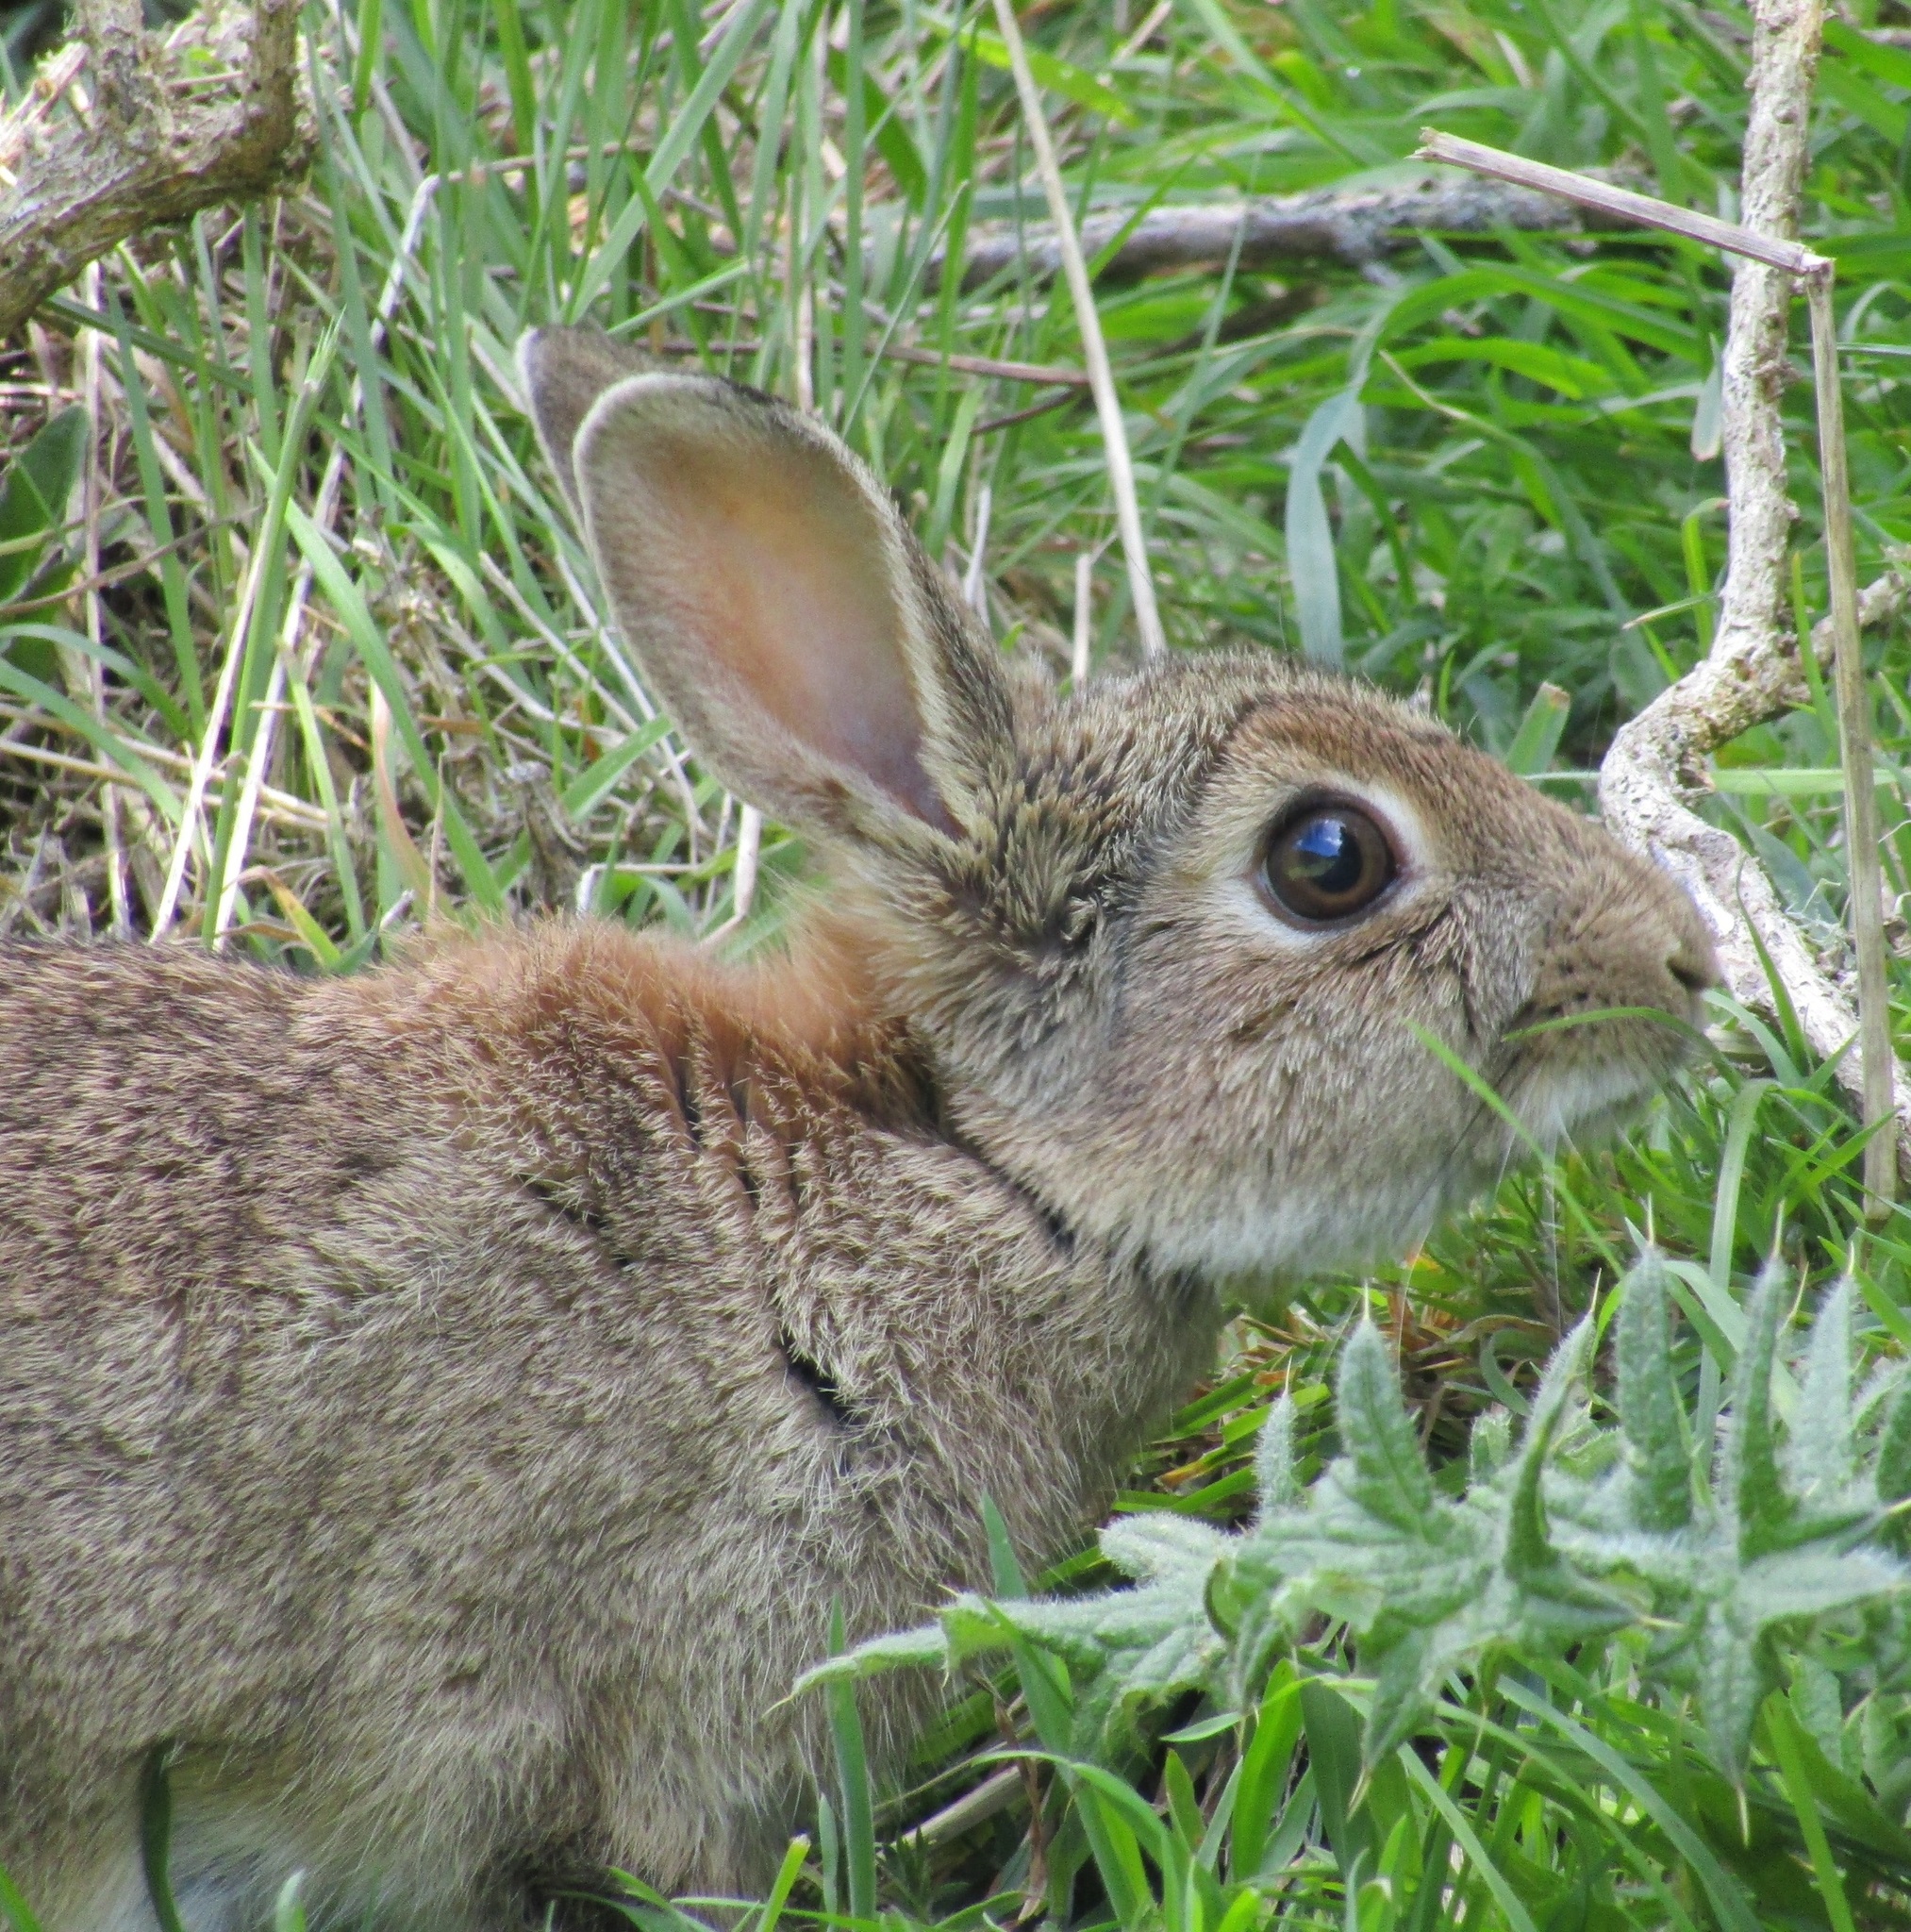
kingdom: Animalia
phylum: Chordata
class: Mammalia
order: Lagomorpha
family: Leporidae
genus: Oryctolagus
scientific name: Oryctolagus cuniculus
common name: European rabbit
